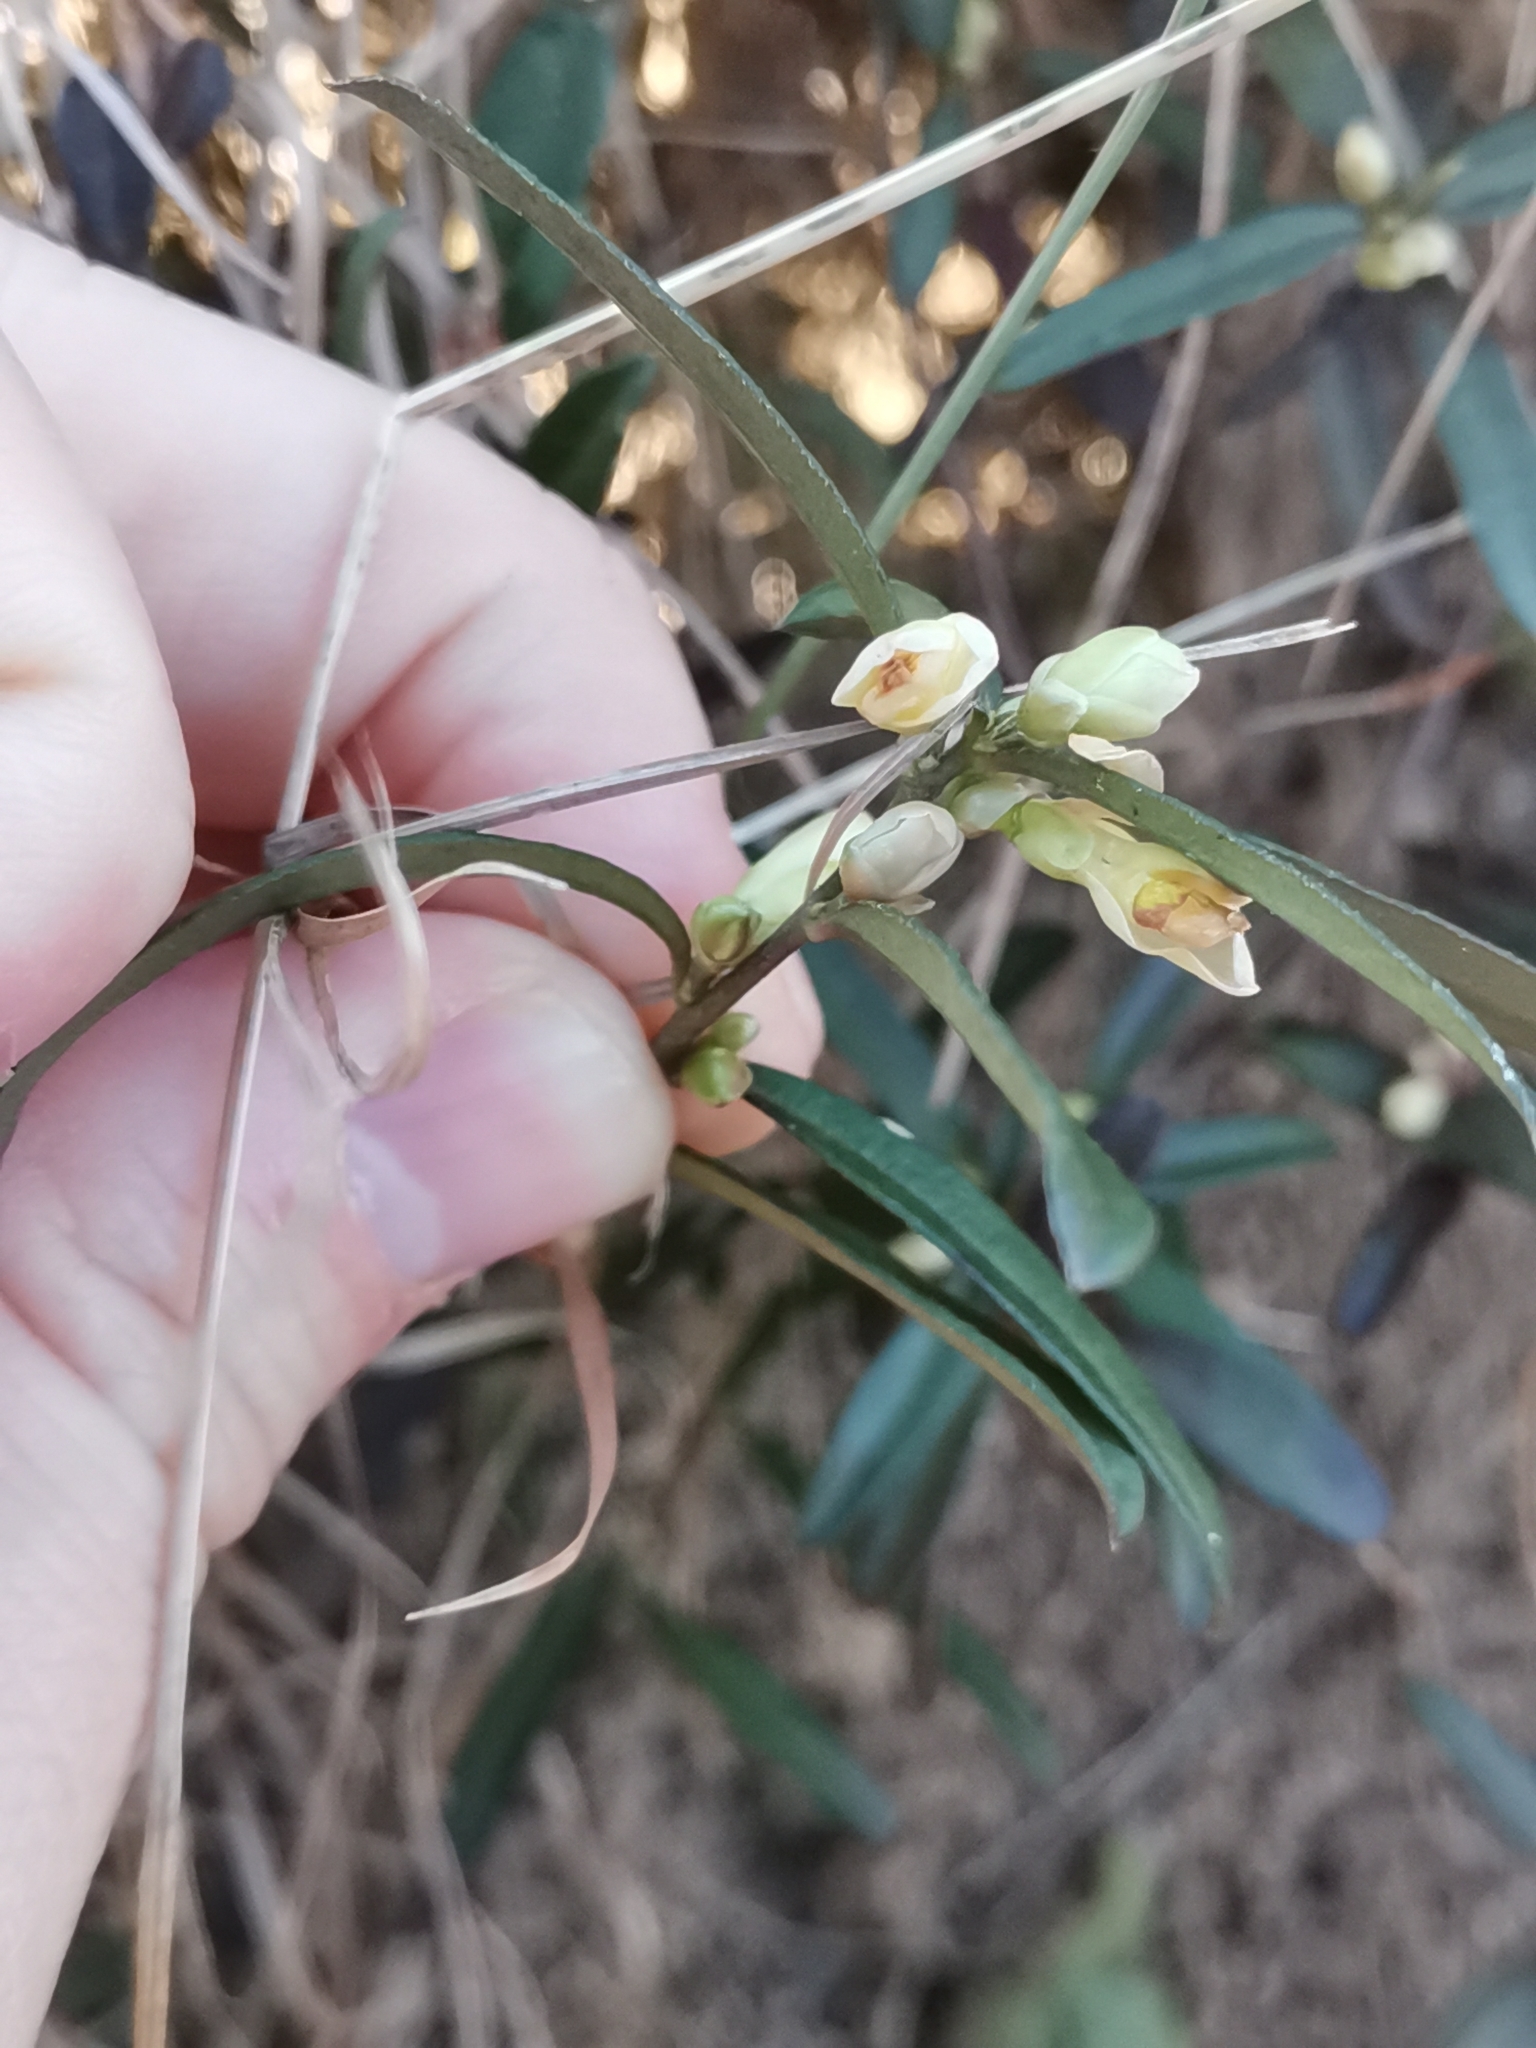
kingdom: Plantae
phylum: Tracheophyta
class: Magnoliopsida
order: Fabales
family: Polygalaceae
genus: Polygaloides
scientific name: Polygaloides chamaebuxus
